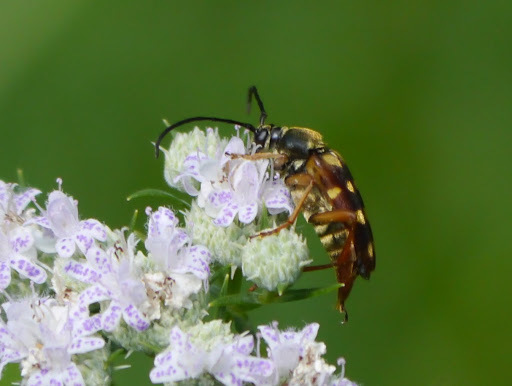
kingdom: Animalia
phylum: Arthropoda
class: Insecta
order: Coleoptera
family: Cerambycidae
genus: Typocerus
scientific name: Typocerus velutinus
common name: Banded longhorn beetle
